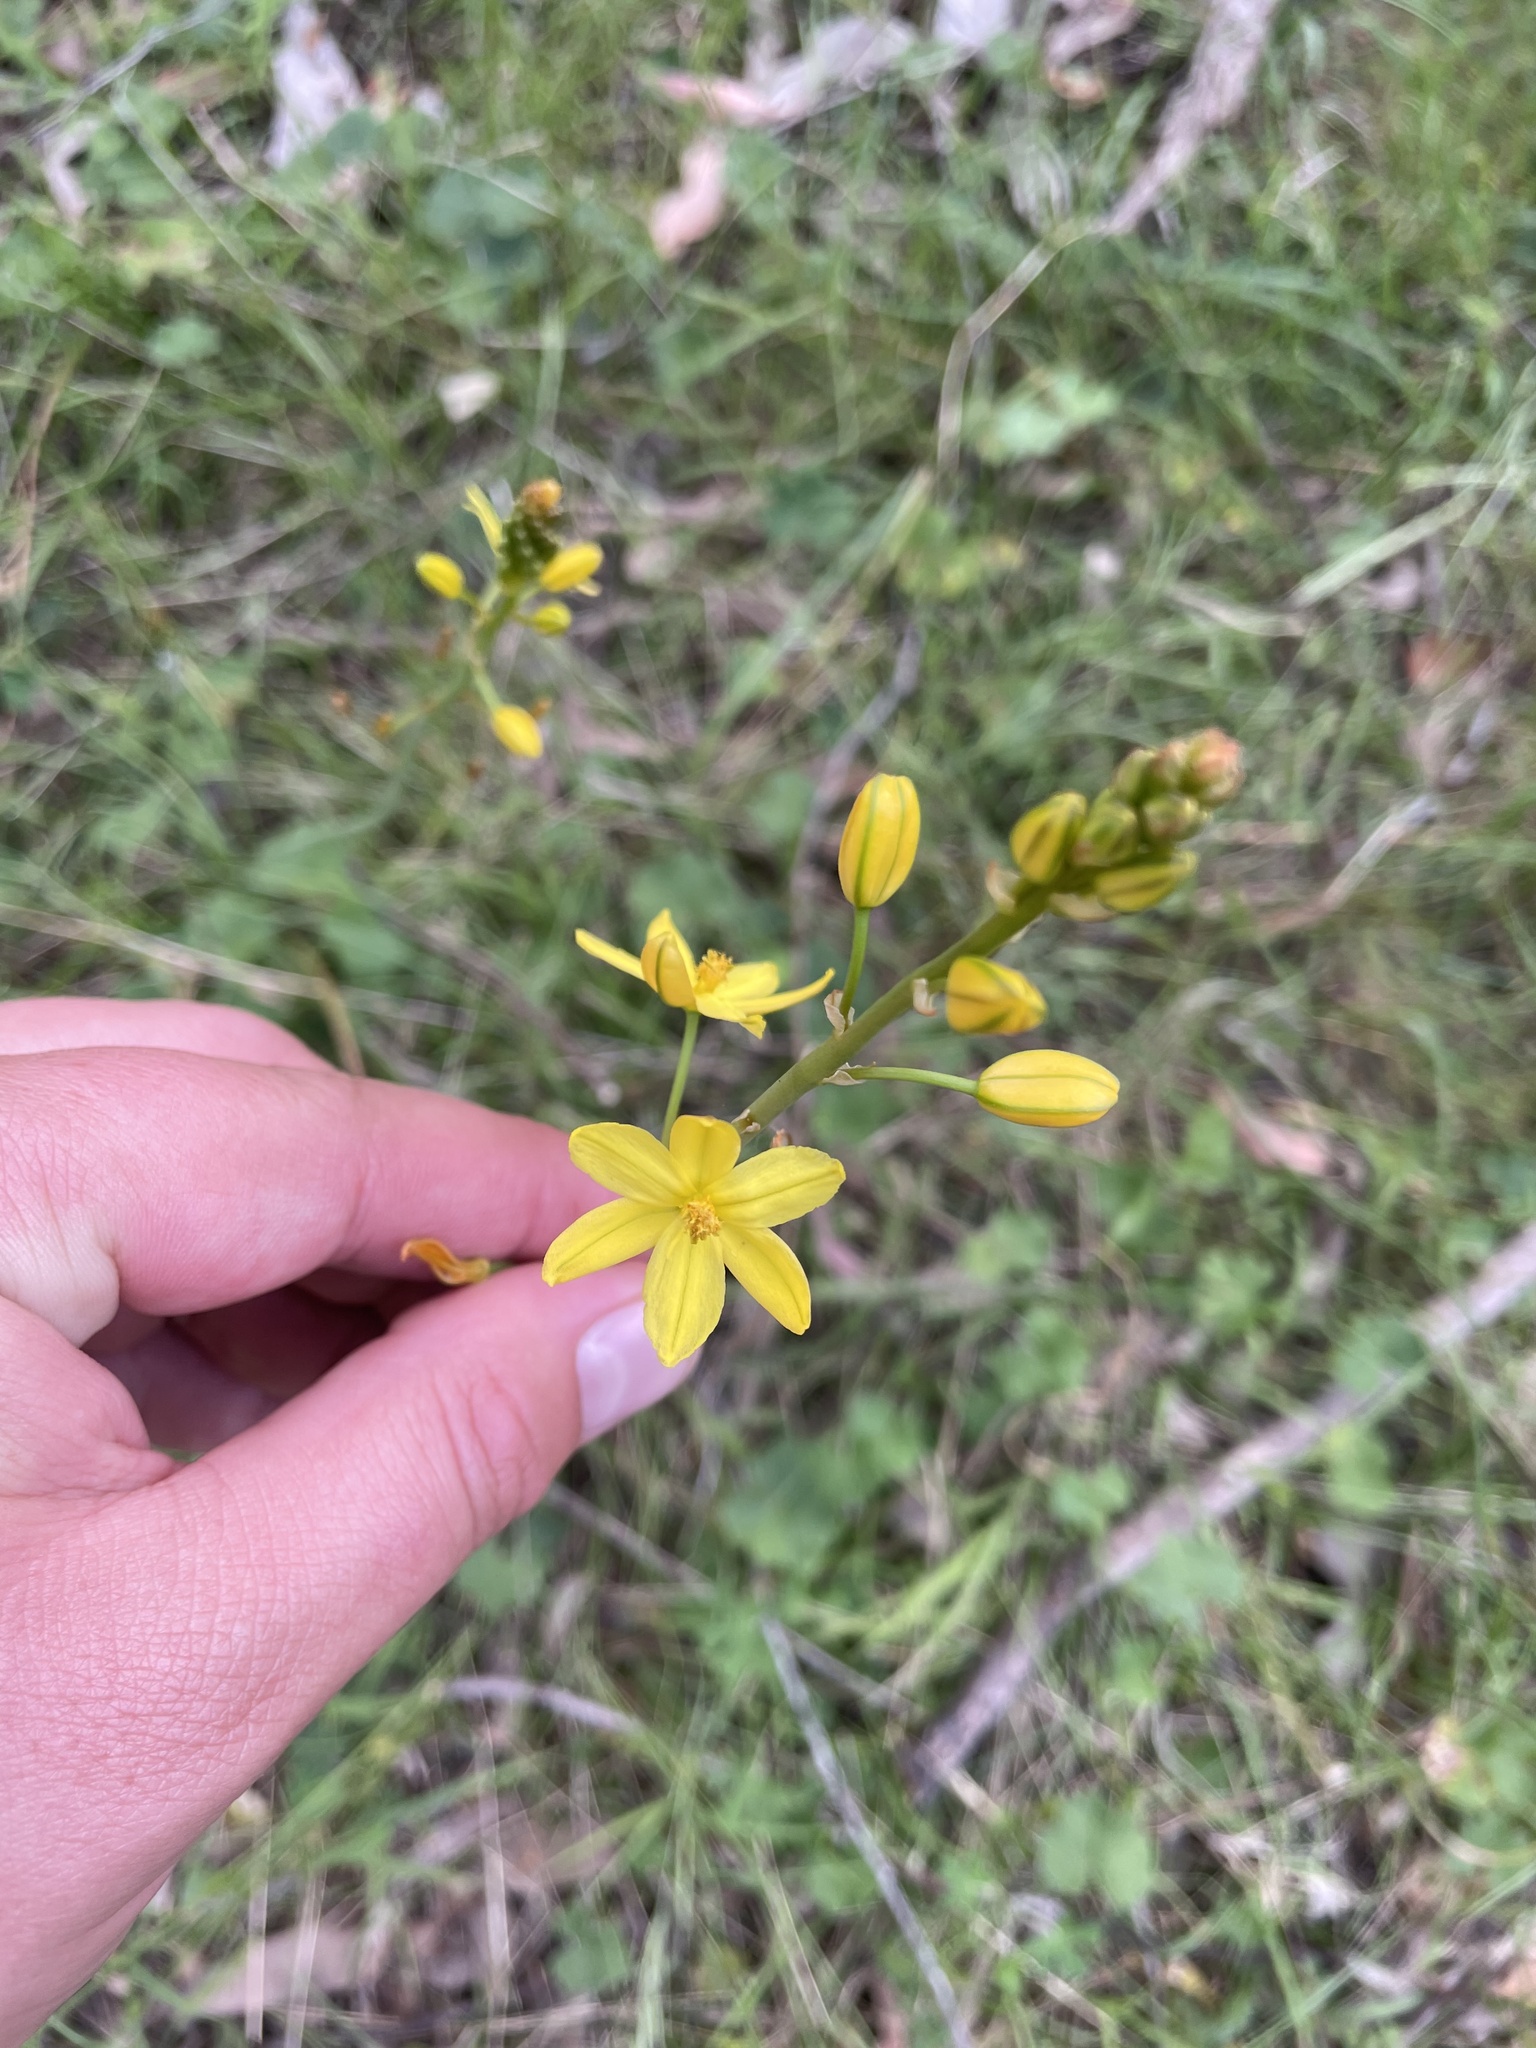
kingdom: Plantae
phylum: Tracheophyta
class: Liliopsida
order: Asparagales
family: Asphodelaceae
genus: Bulbine
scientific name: Bulbine bulbosa
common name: Golden-lily
